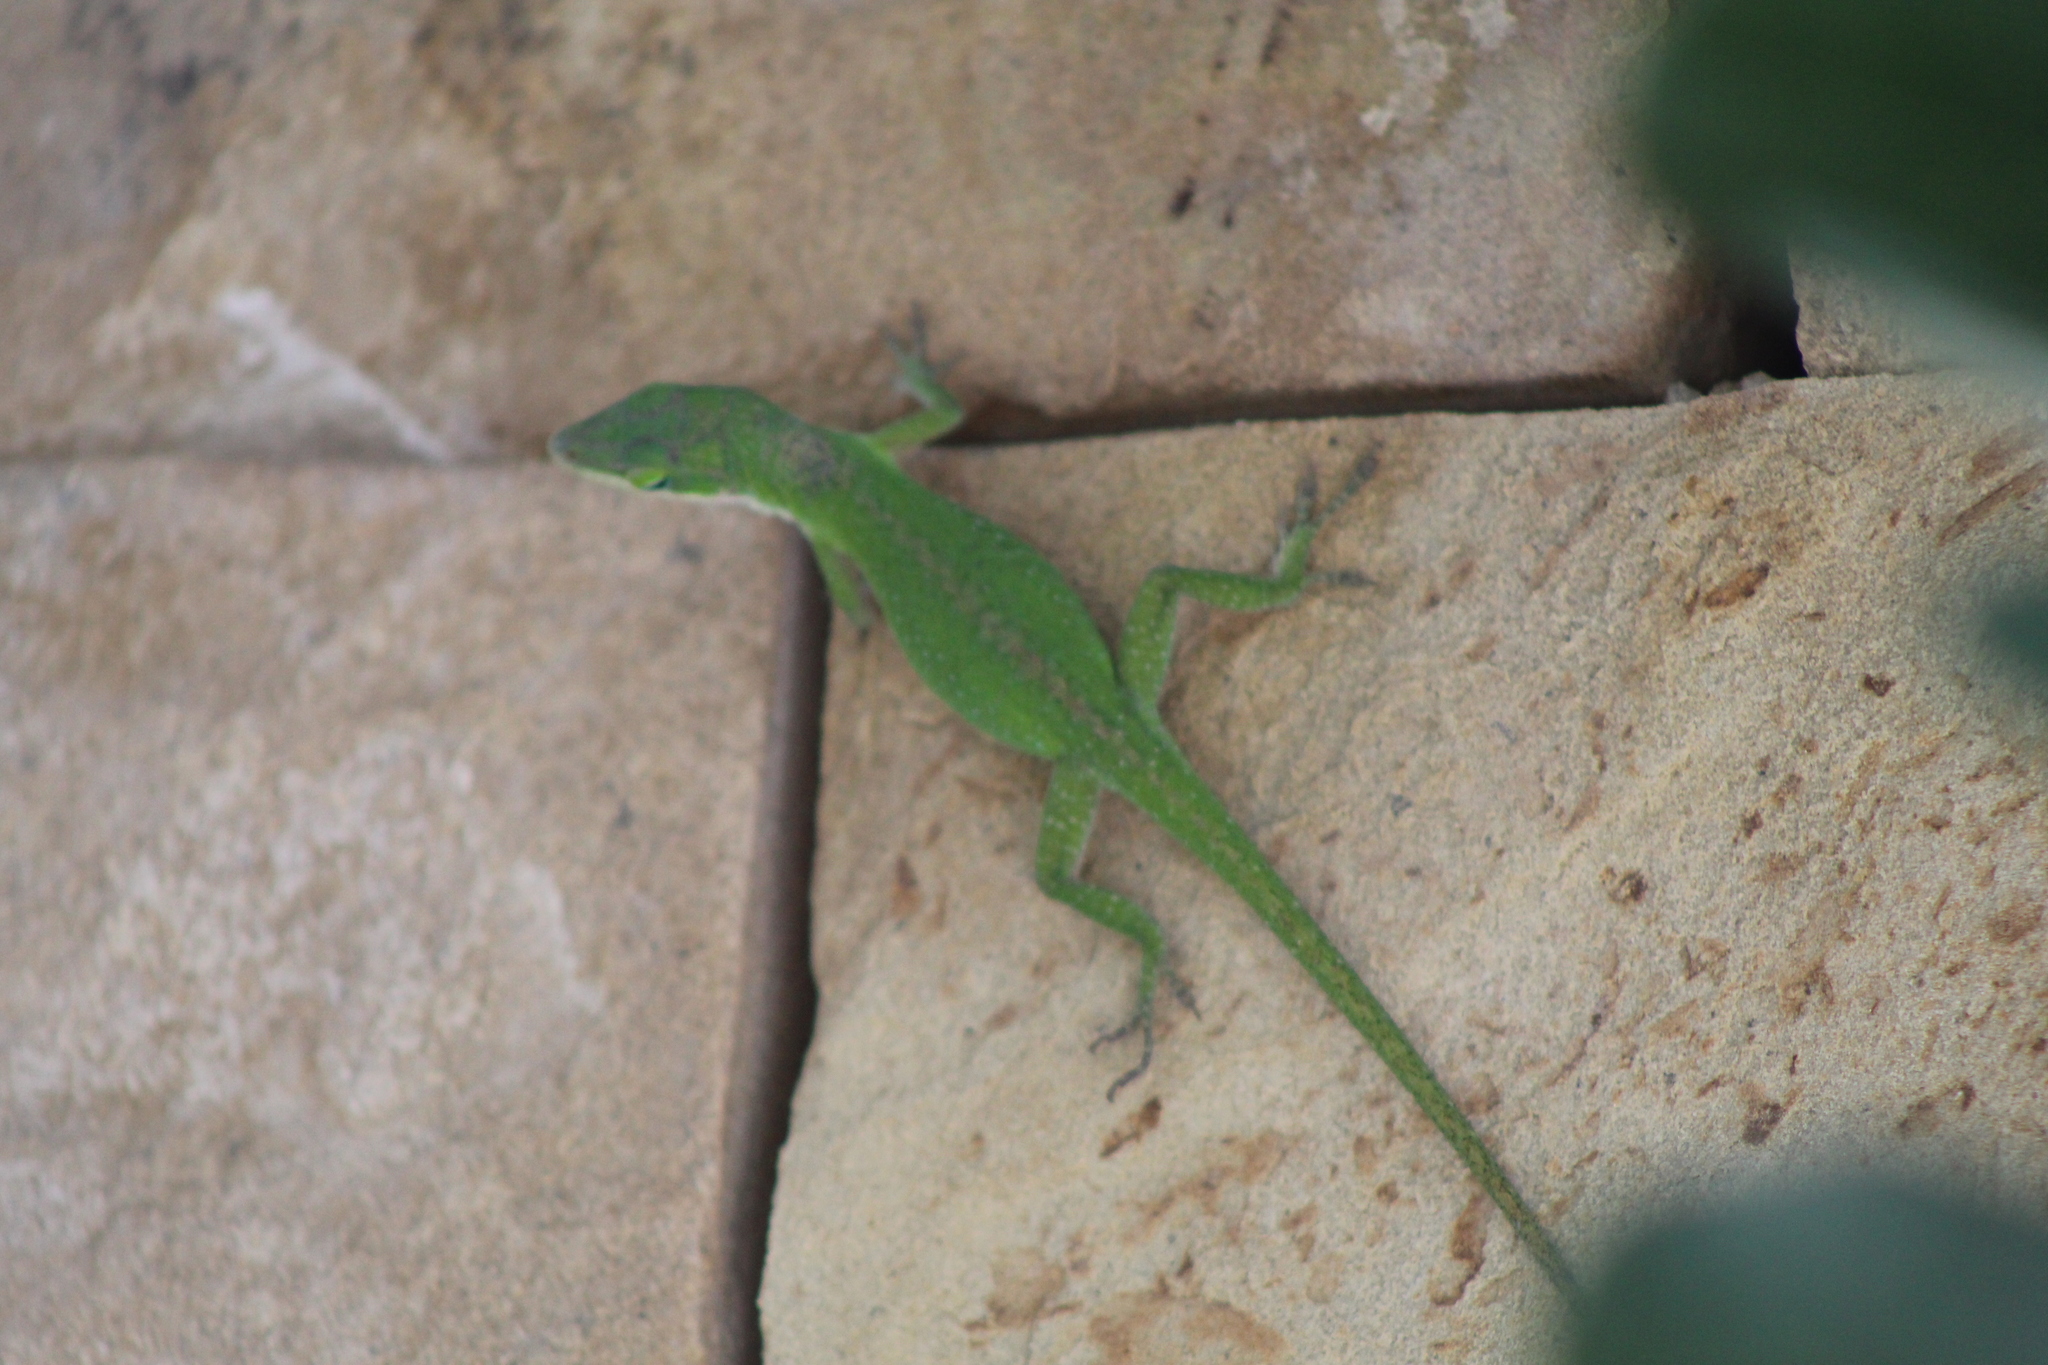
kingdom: Animalia
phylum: Chordata
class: Squamata
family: Dactyloidae
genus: Anolis
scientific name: Anolis carolinensis
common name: Green anole
